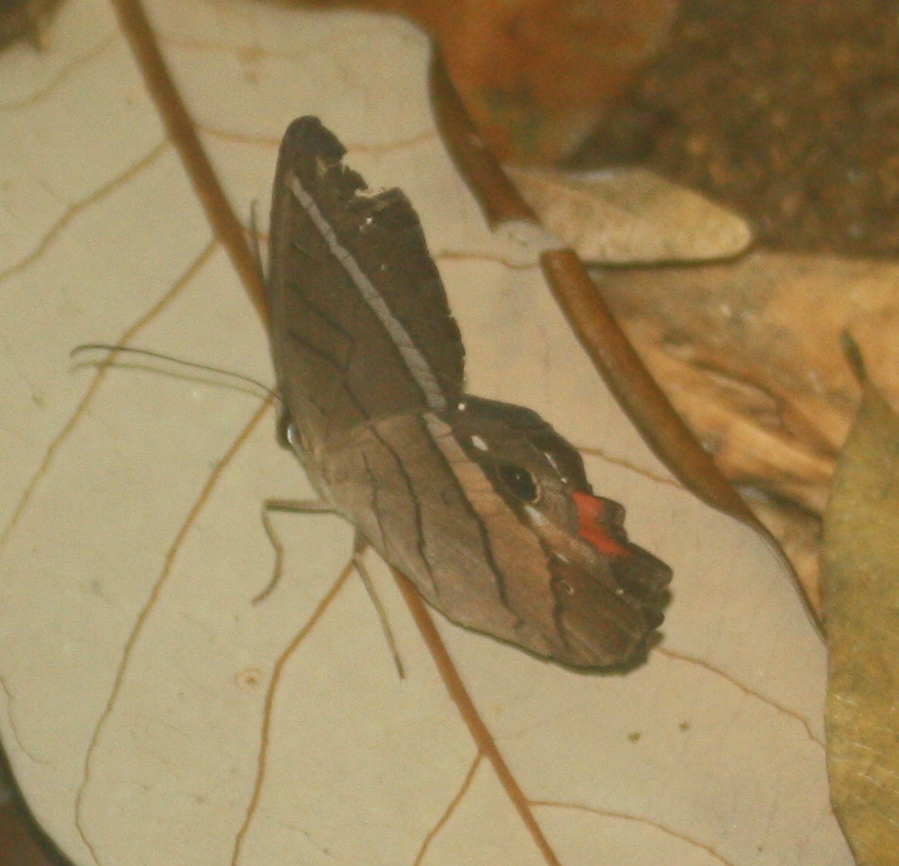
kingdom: Animalia
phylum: Arthropoda
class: Insecta
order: Lepidoptera
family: Nymphalidae
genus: Pierella
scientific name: Pierella helvina
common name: Red-washed satyr
